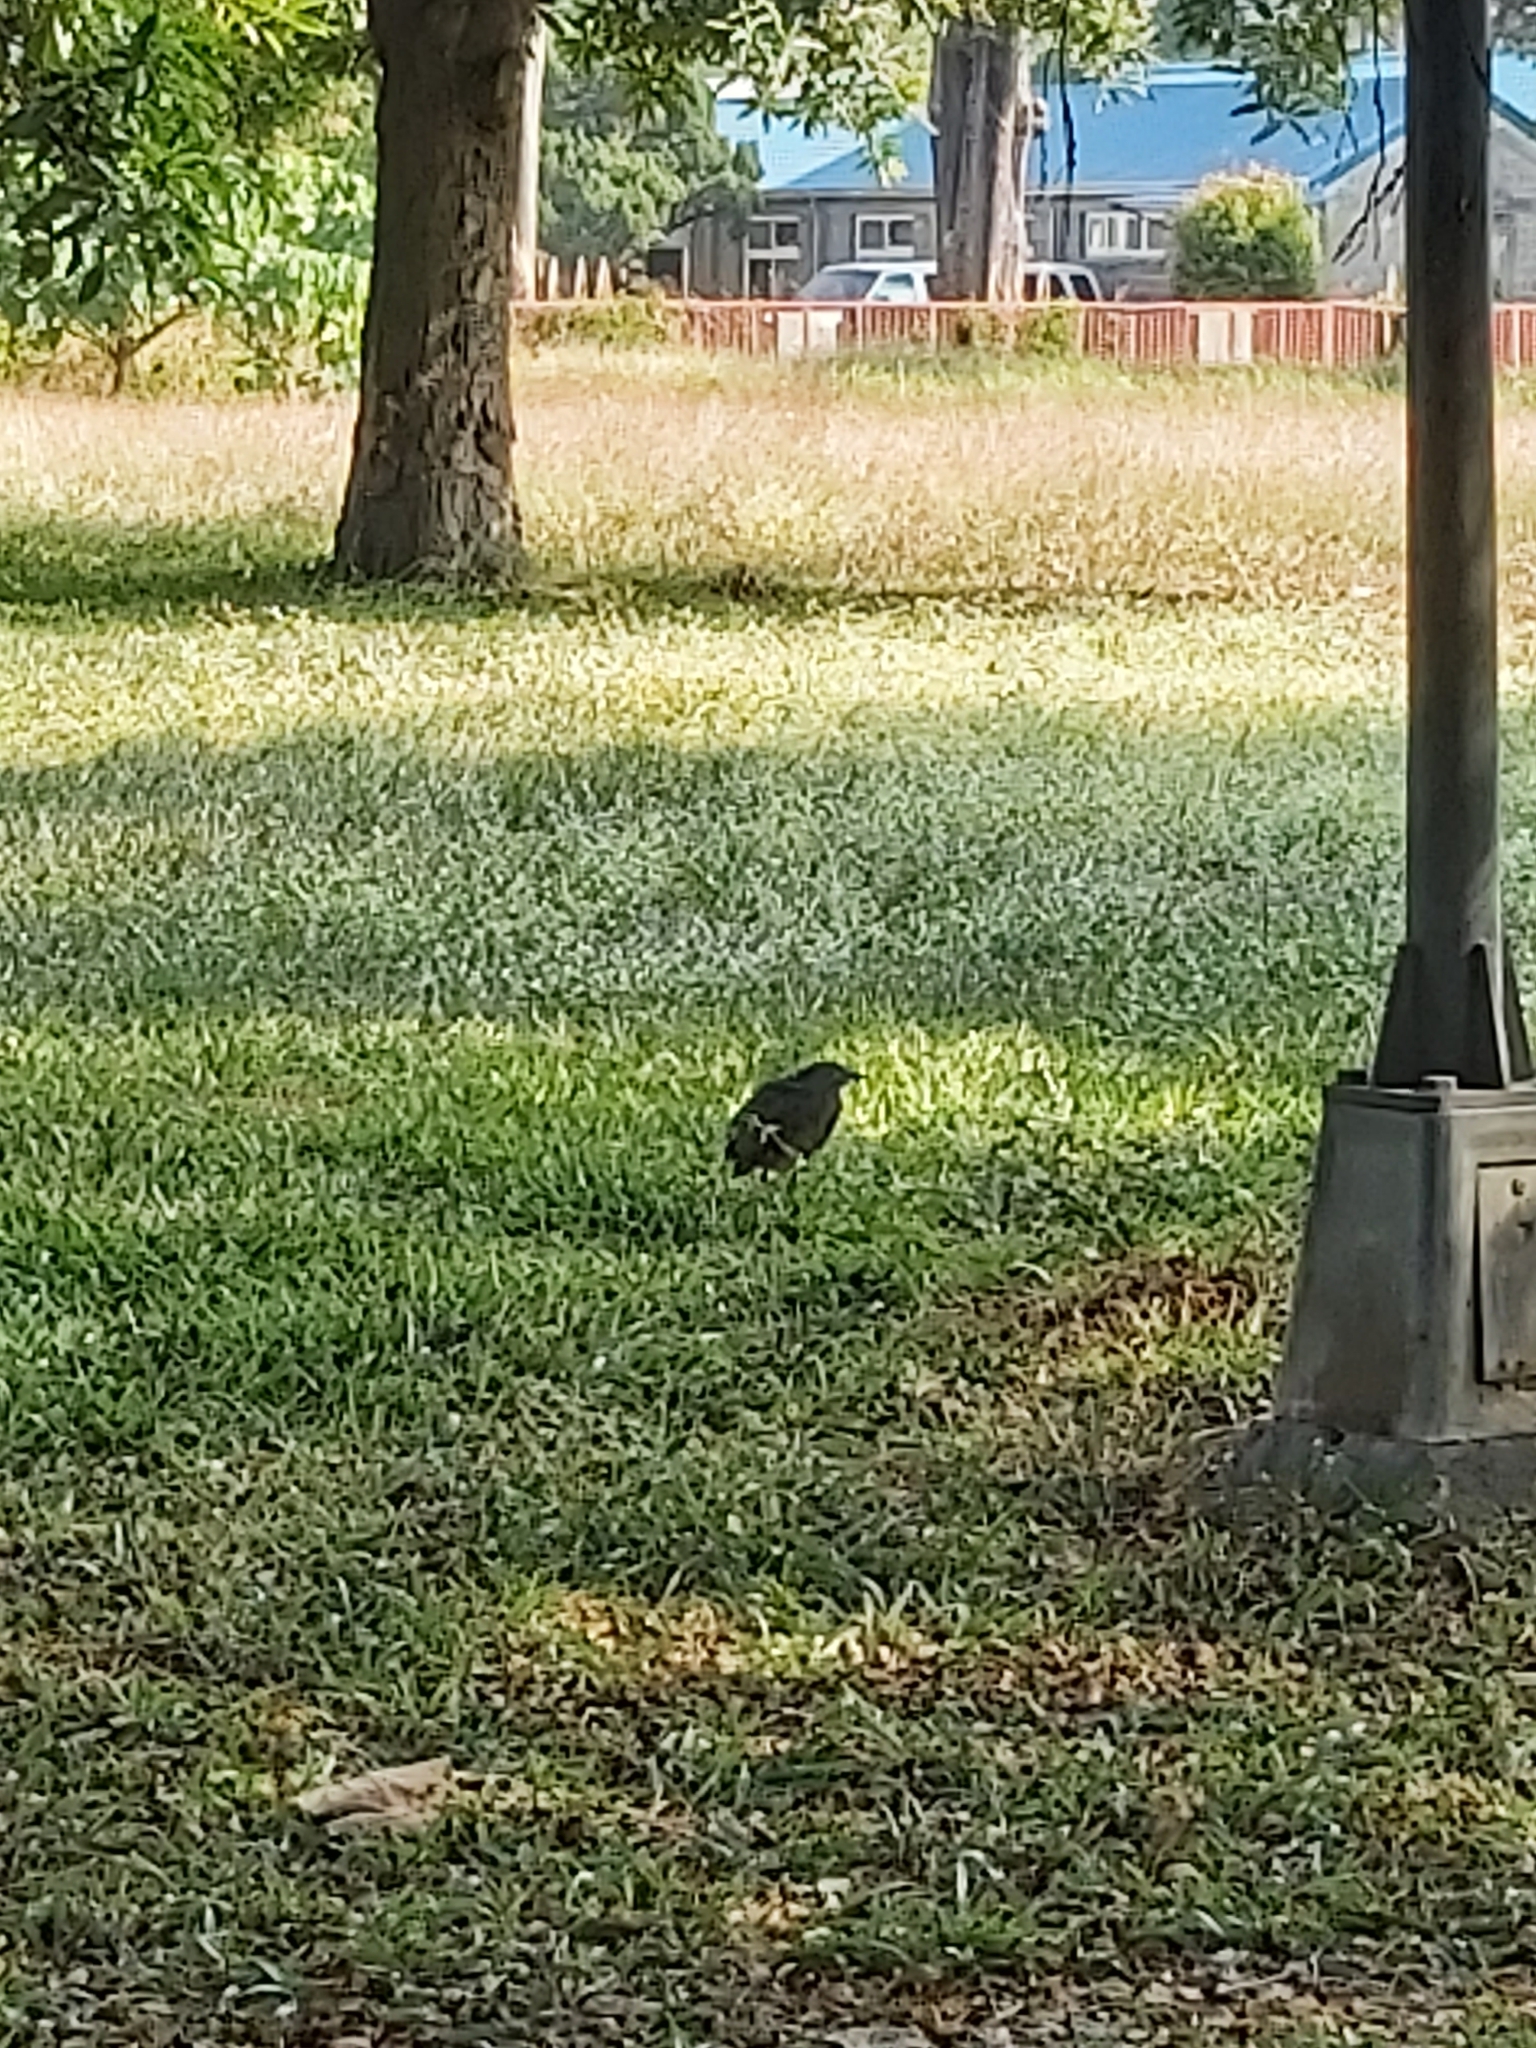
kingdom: Animalia
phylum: Chordata
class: Aves
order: Pelecaniformes
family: Ardeidae
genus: Gorsachius
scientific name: Gorsachius melanolophus
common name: Malayan night heron
